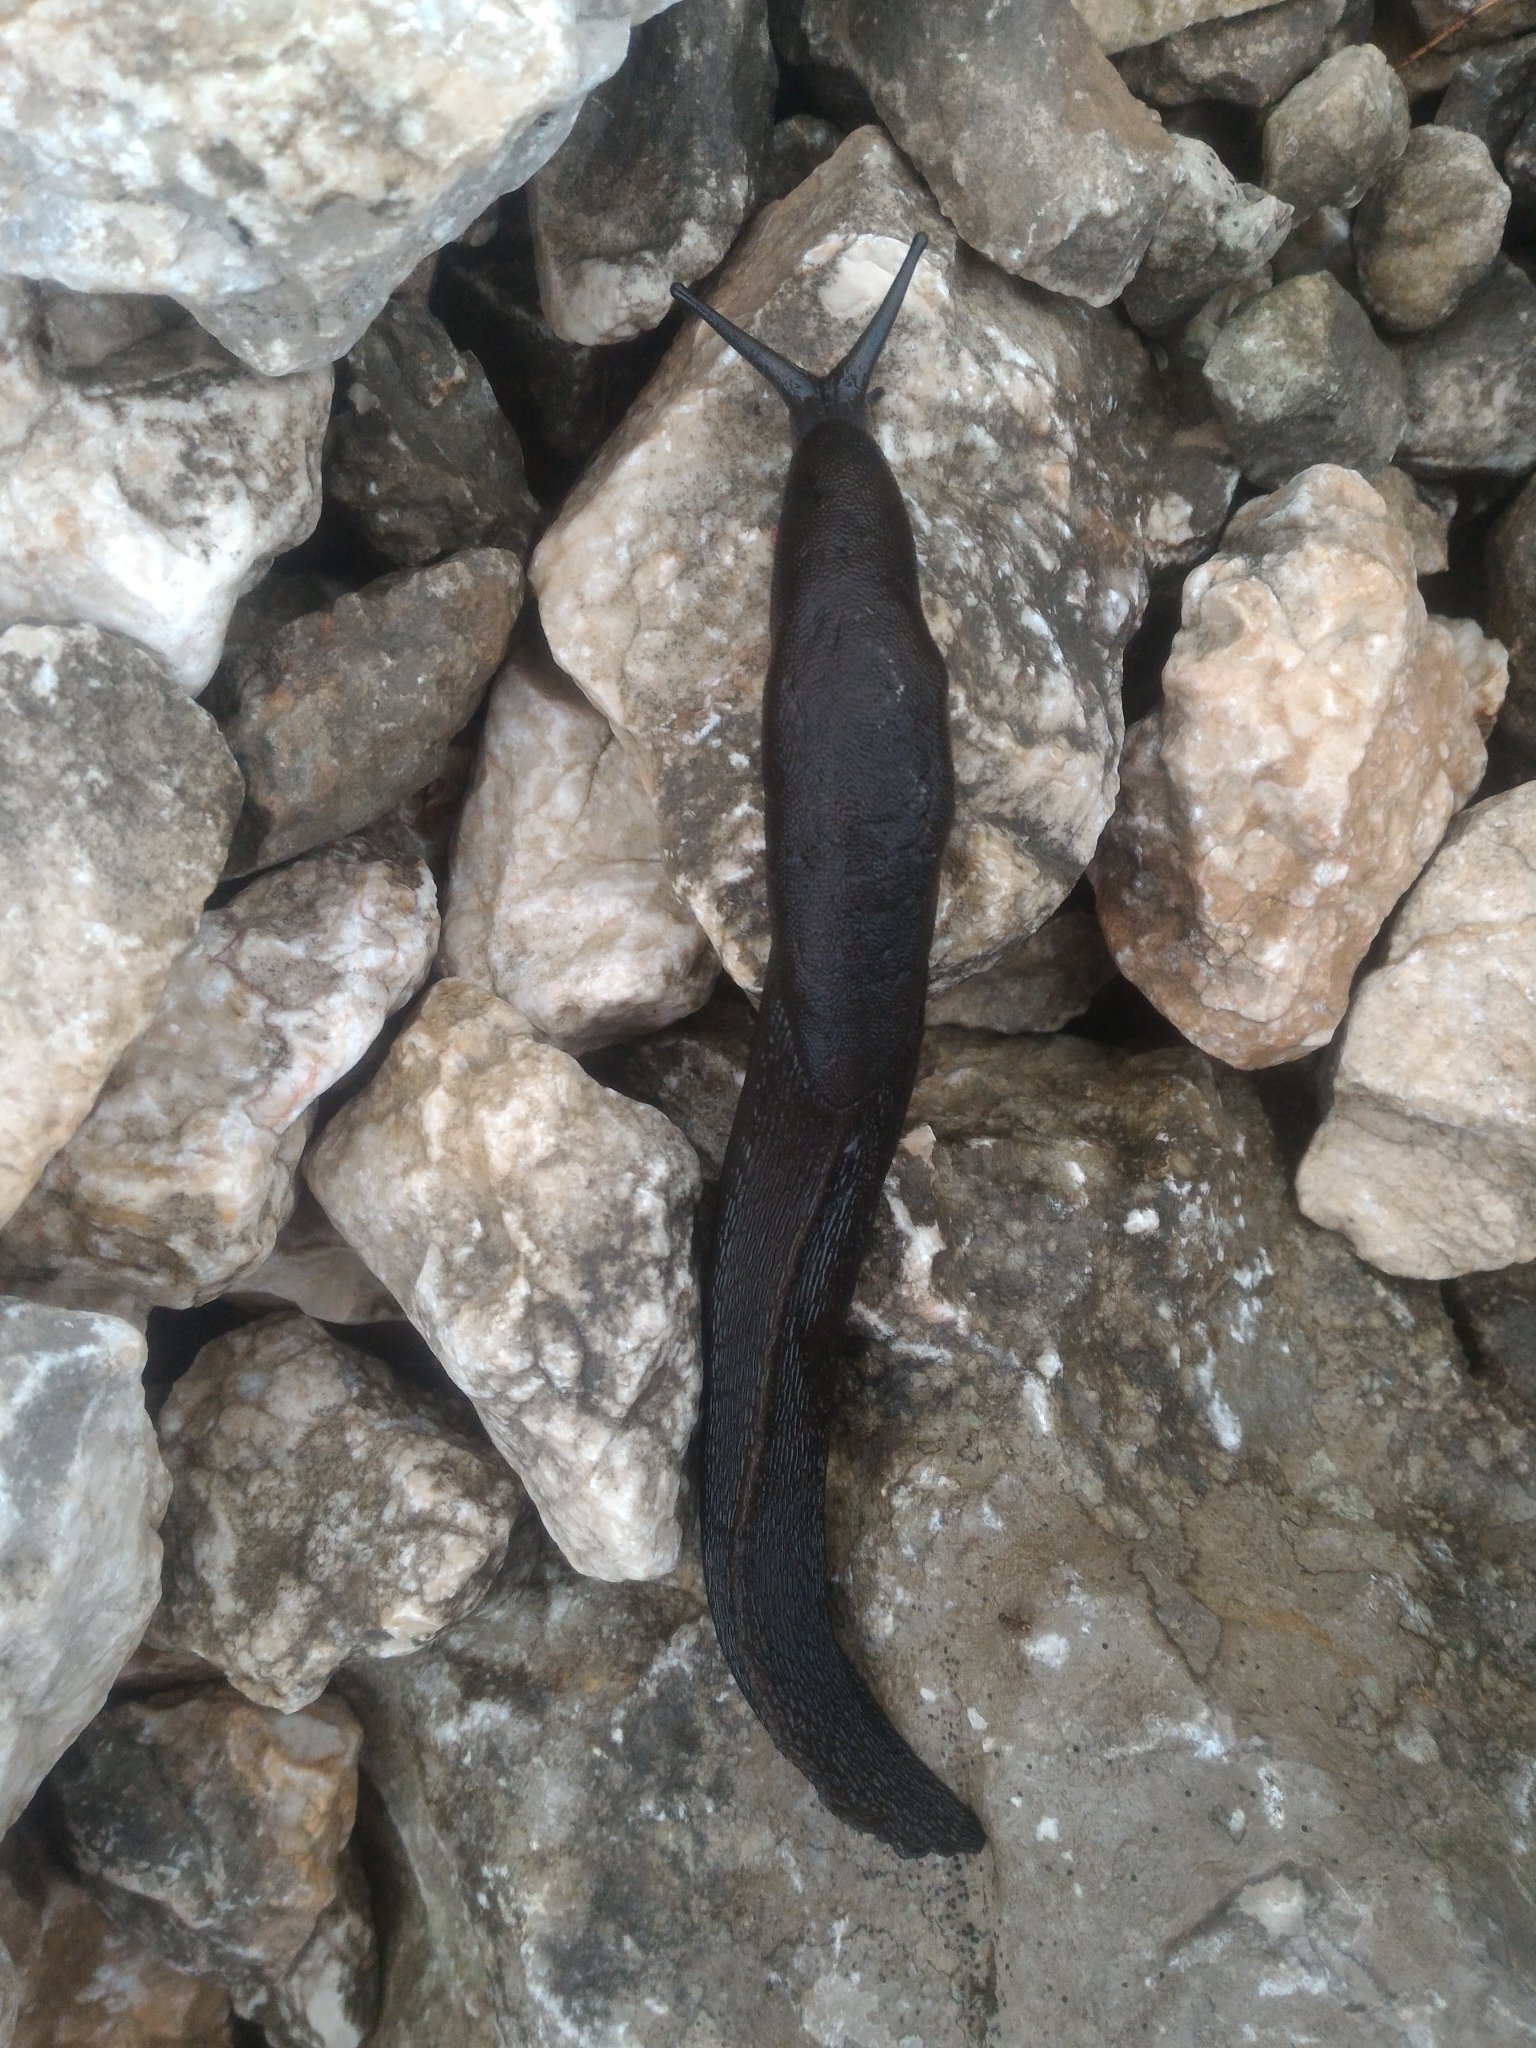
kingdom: Animalia
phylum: Mollusca
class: Gastropoda
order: Stylommatophora
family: Limacidae
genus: Eumilax
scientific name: Eumilax brandti
